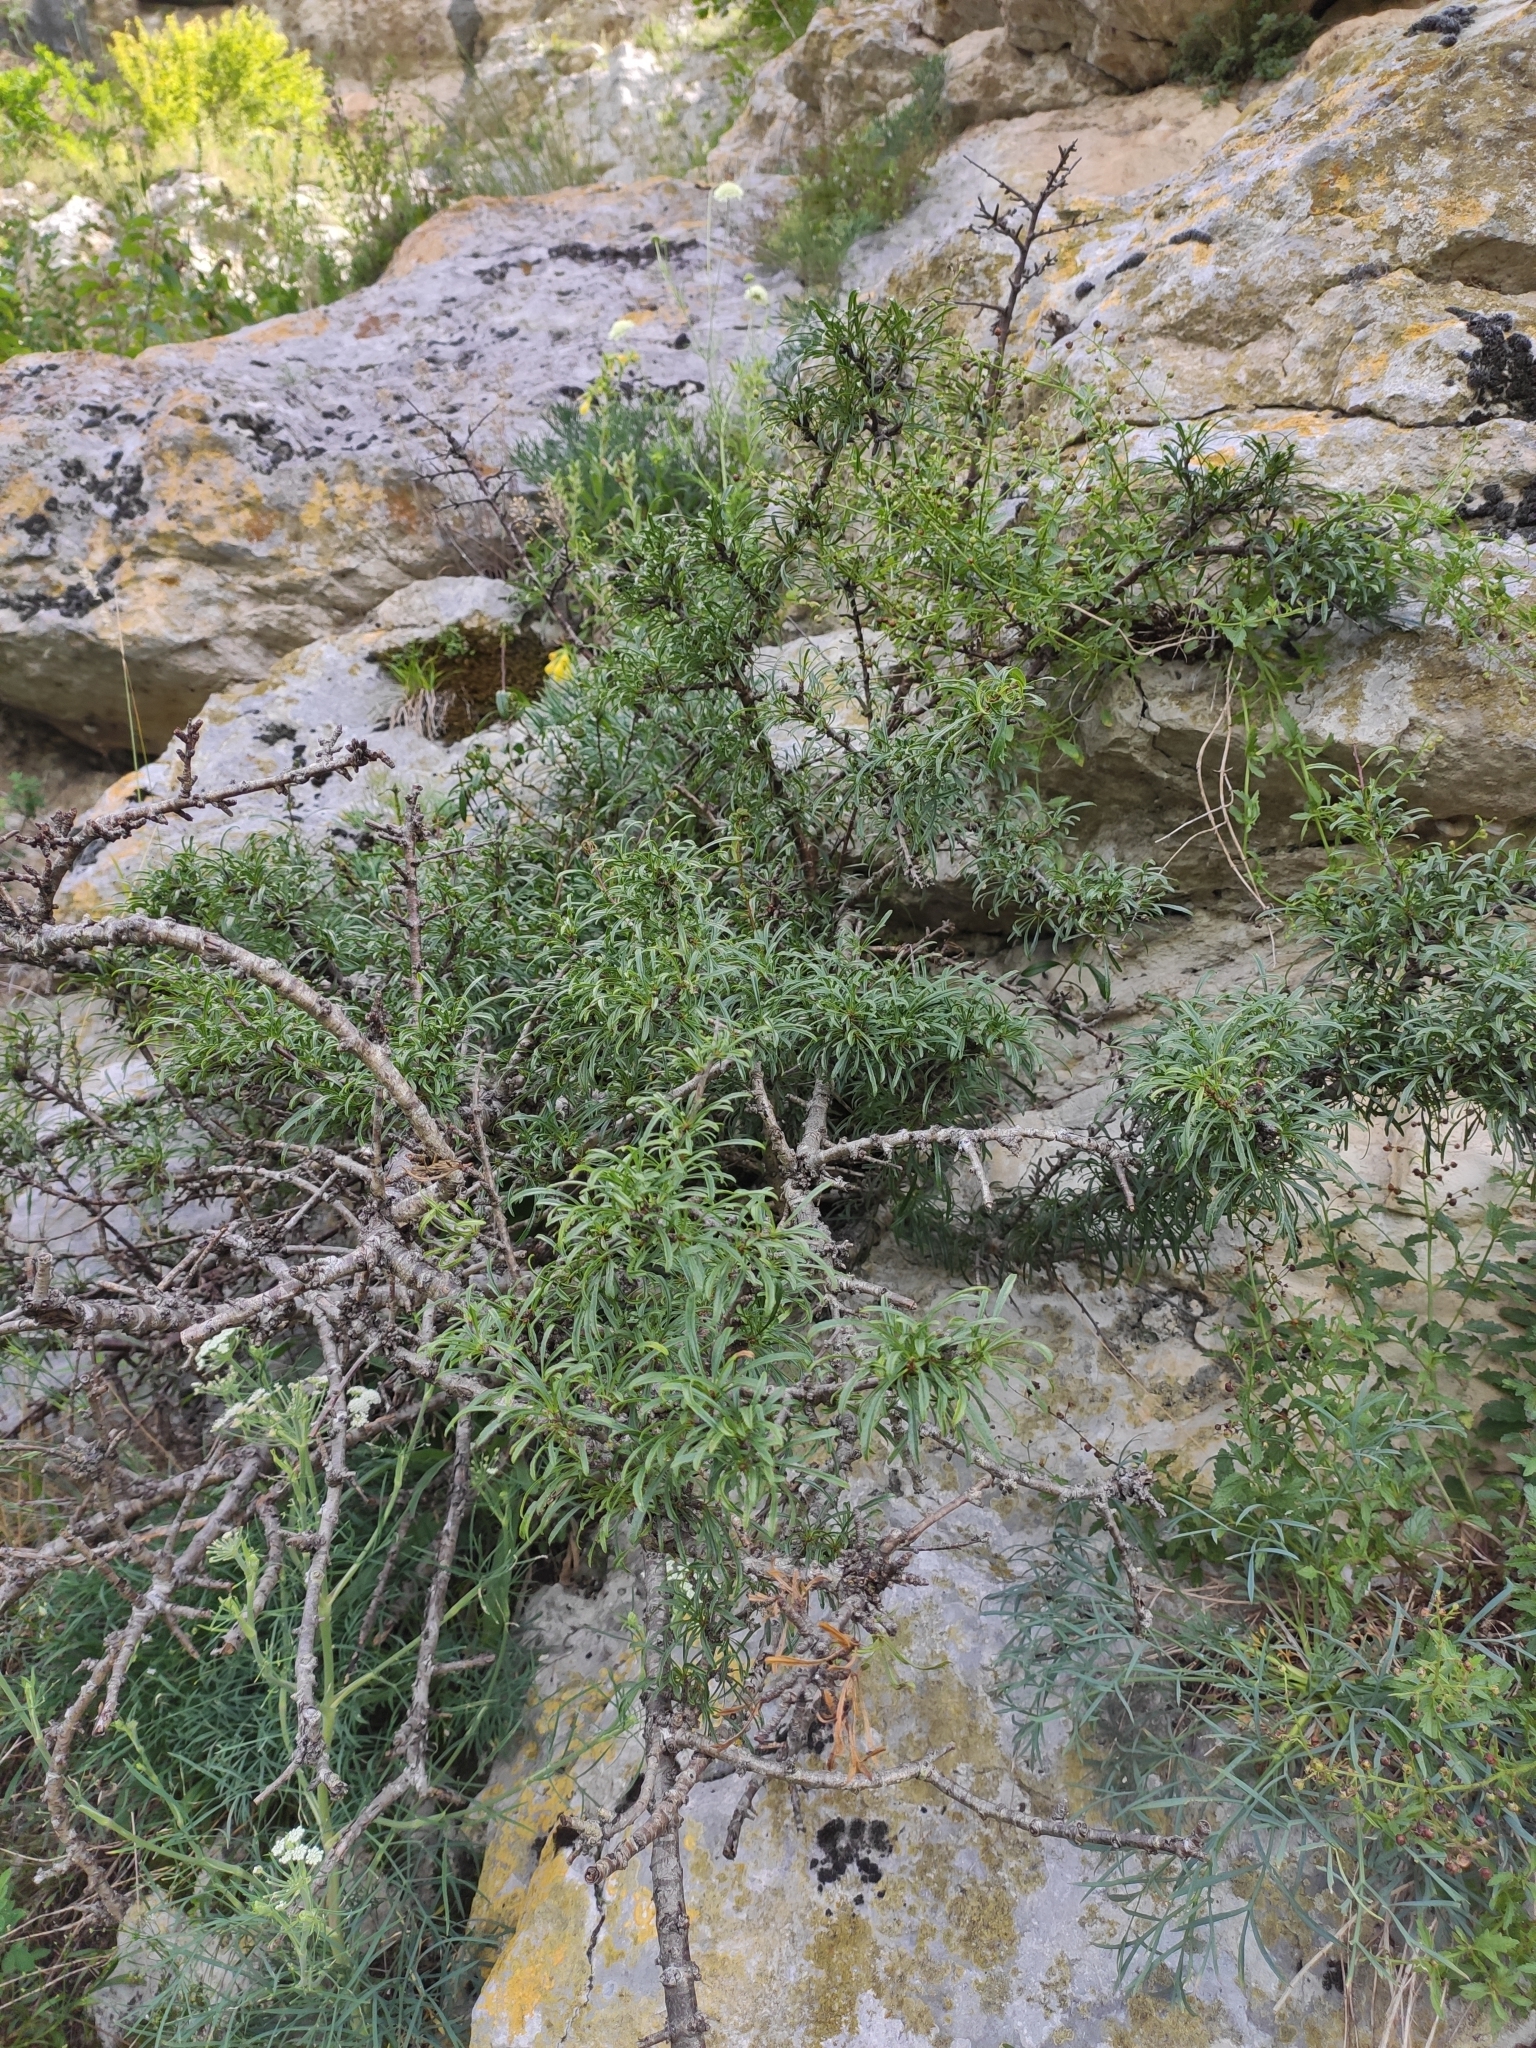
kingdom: Plantae
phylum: Tracheophyta
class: Magnoliopsida
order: Rosales
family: Rhamnaceae
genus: Rhamnus
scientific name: Rhamnus erythroxyloides
